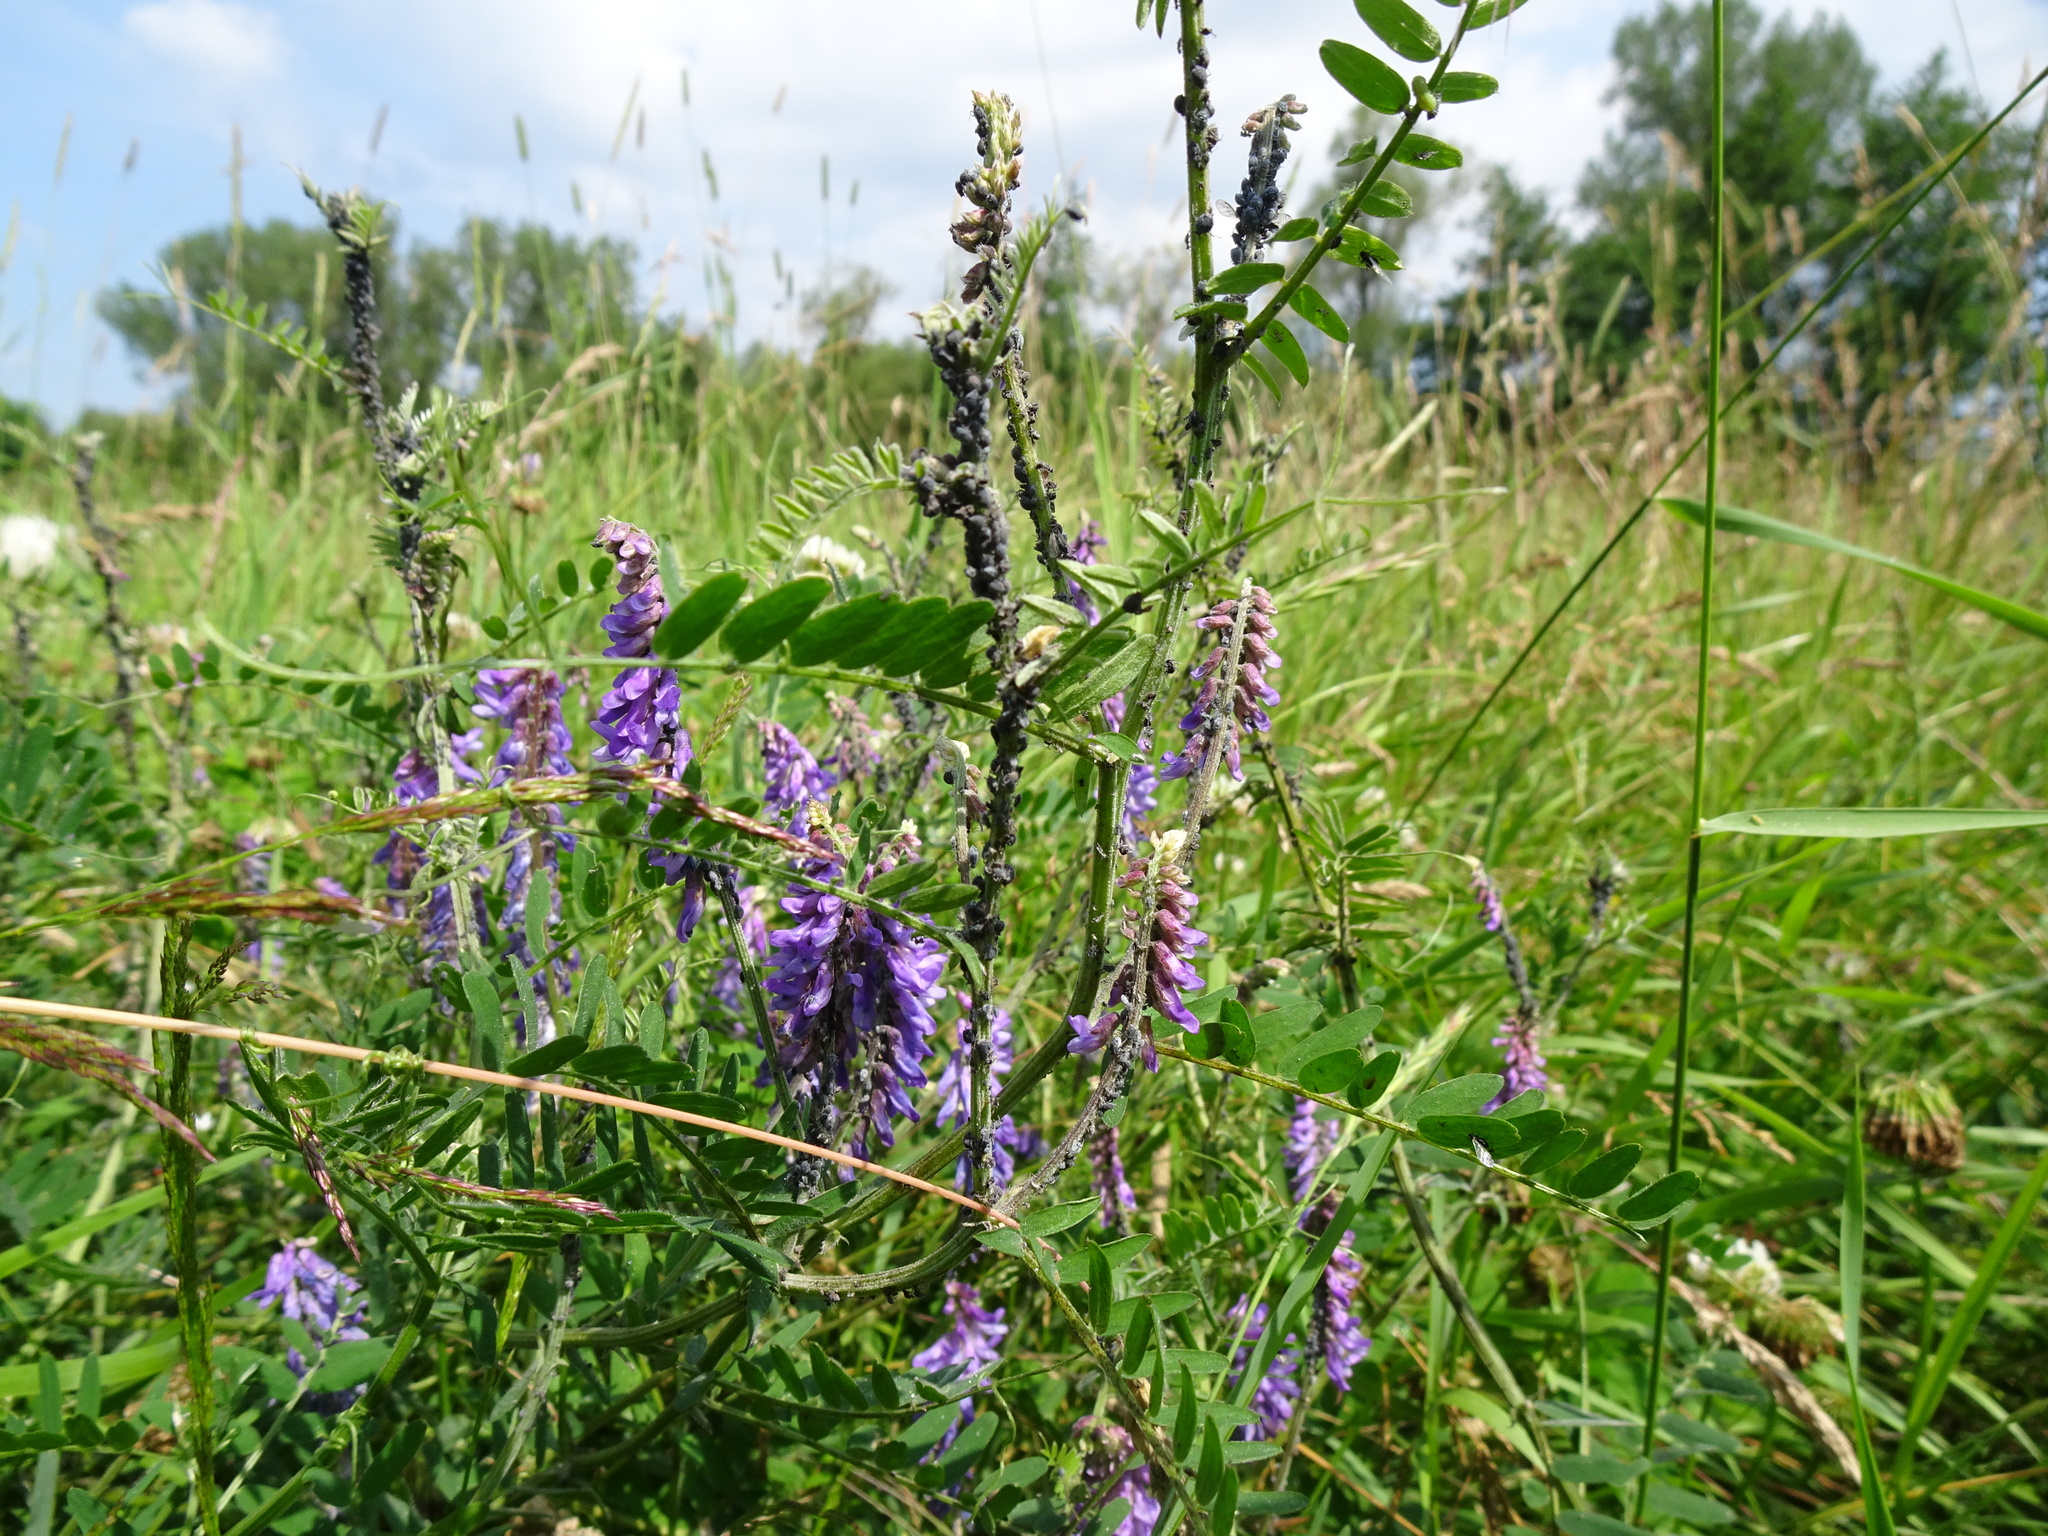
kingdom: Plantae
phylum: Tracheophyta
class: Magnoliopsida
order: Fabales
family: Fabaceae
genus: Vicia
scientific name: Vicia cracca
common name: Bird vetch
